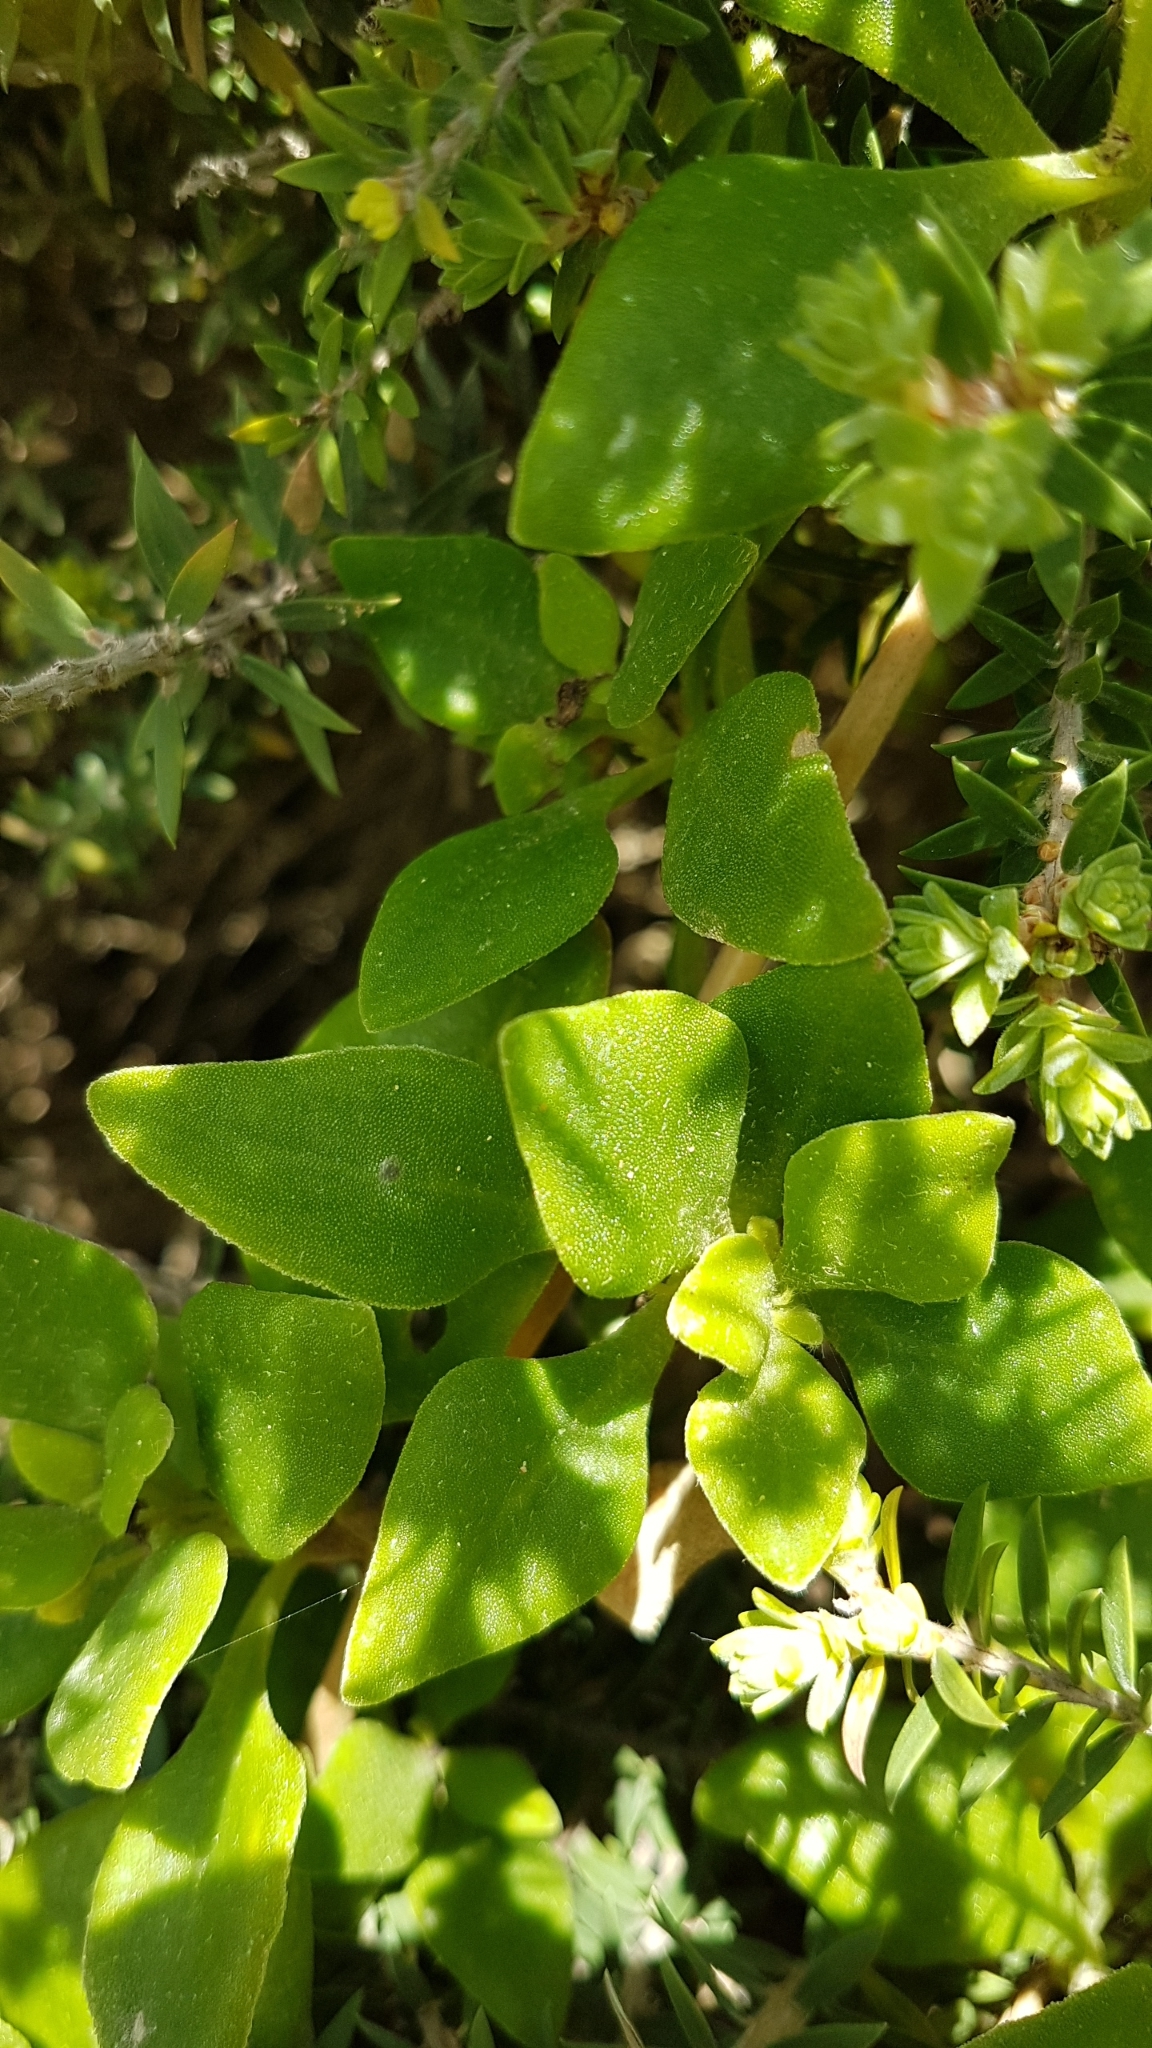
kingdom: Plantae
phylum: Tracheophyta
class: Magnoliopsida
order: Caryophyllales
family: Aizoaceae
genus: Tetragonia
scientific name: Tetragonia implexicoma
